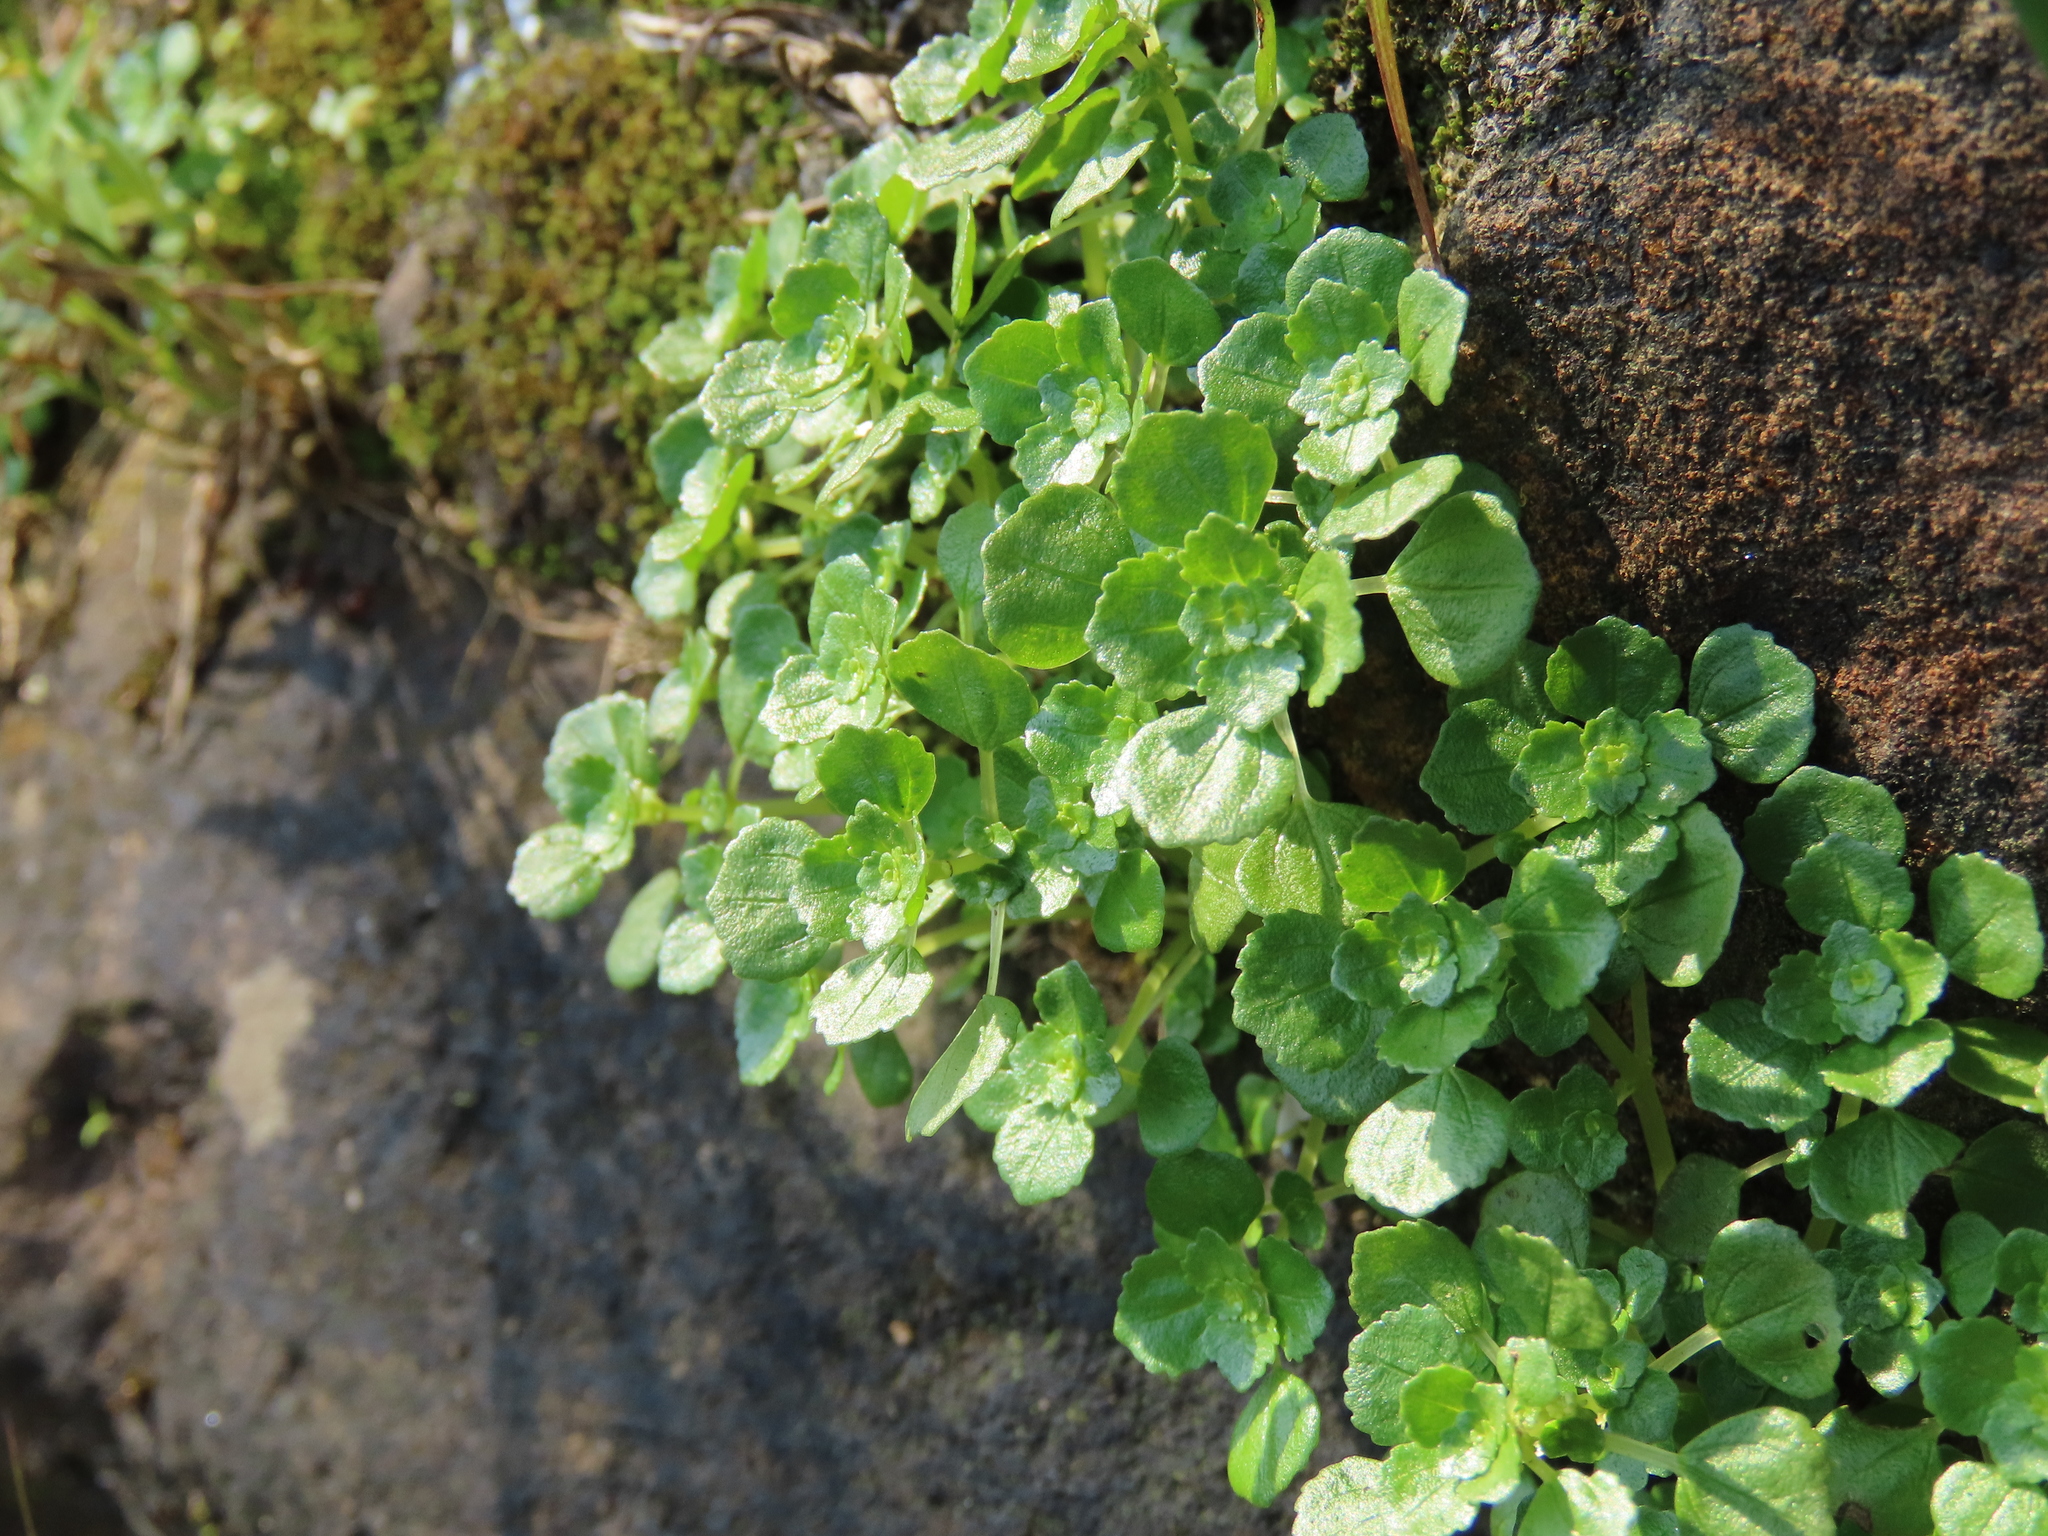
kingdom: Plantae
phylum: Tracheophyta
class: Magnoliopsida
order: Rosales
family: Urticaceae
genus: Pilea
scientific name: Pilea peploides
